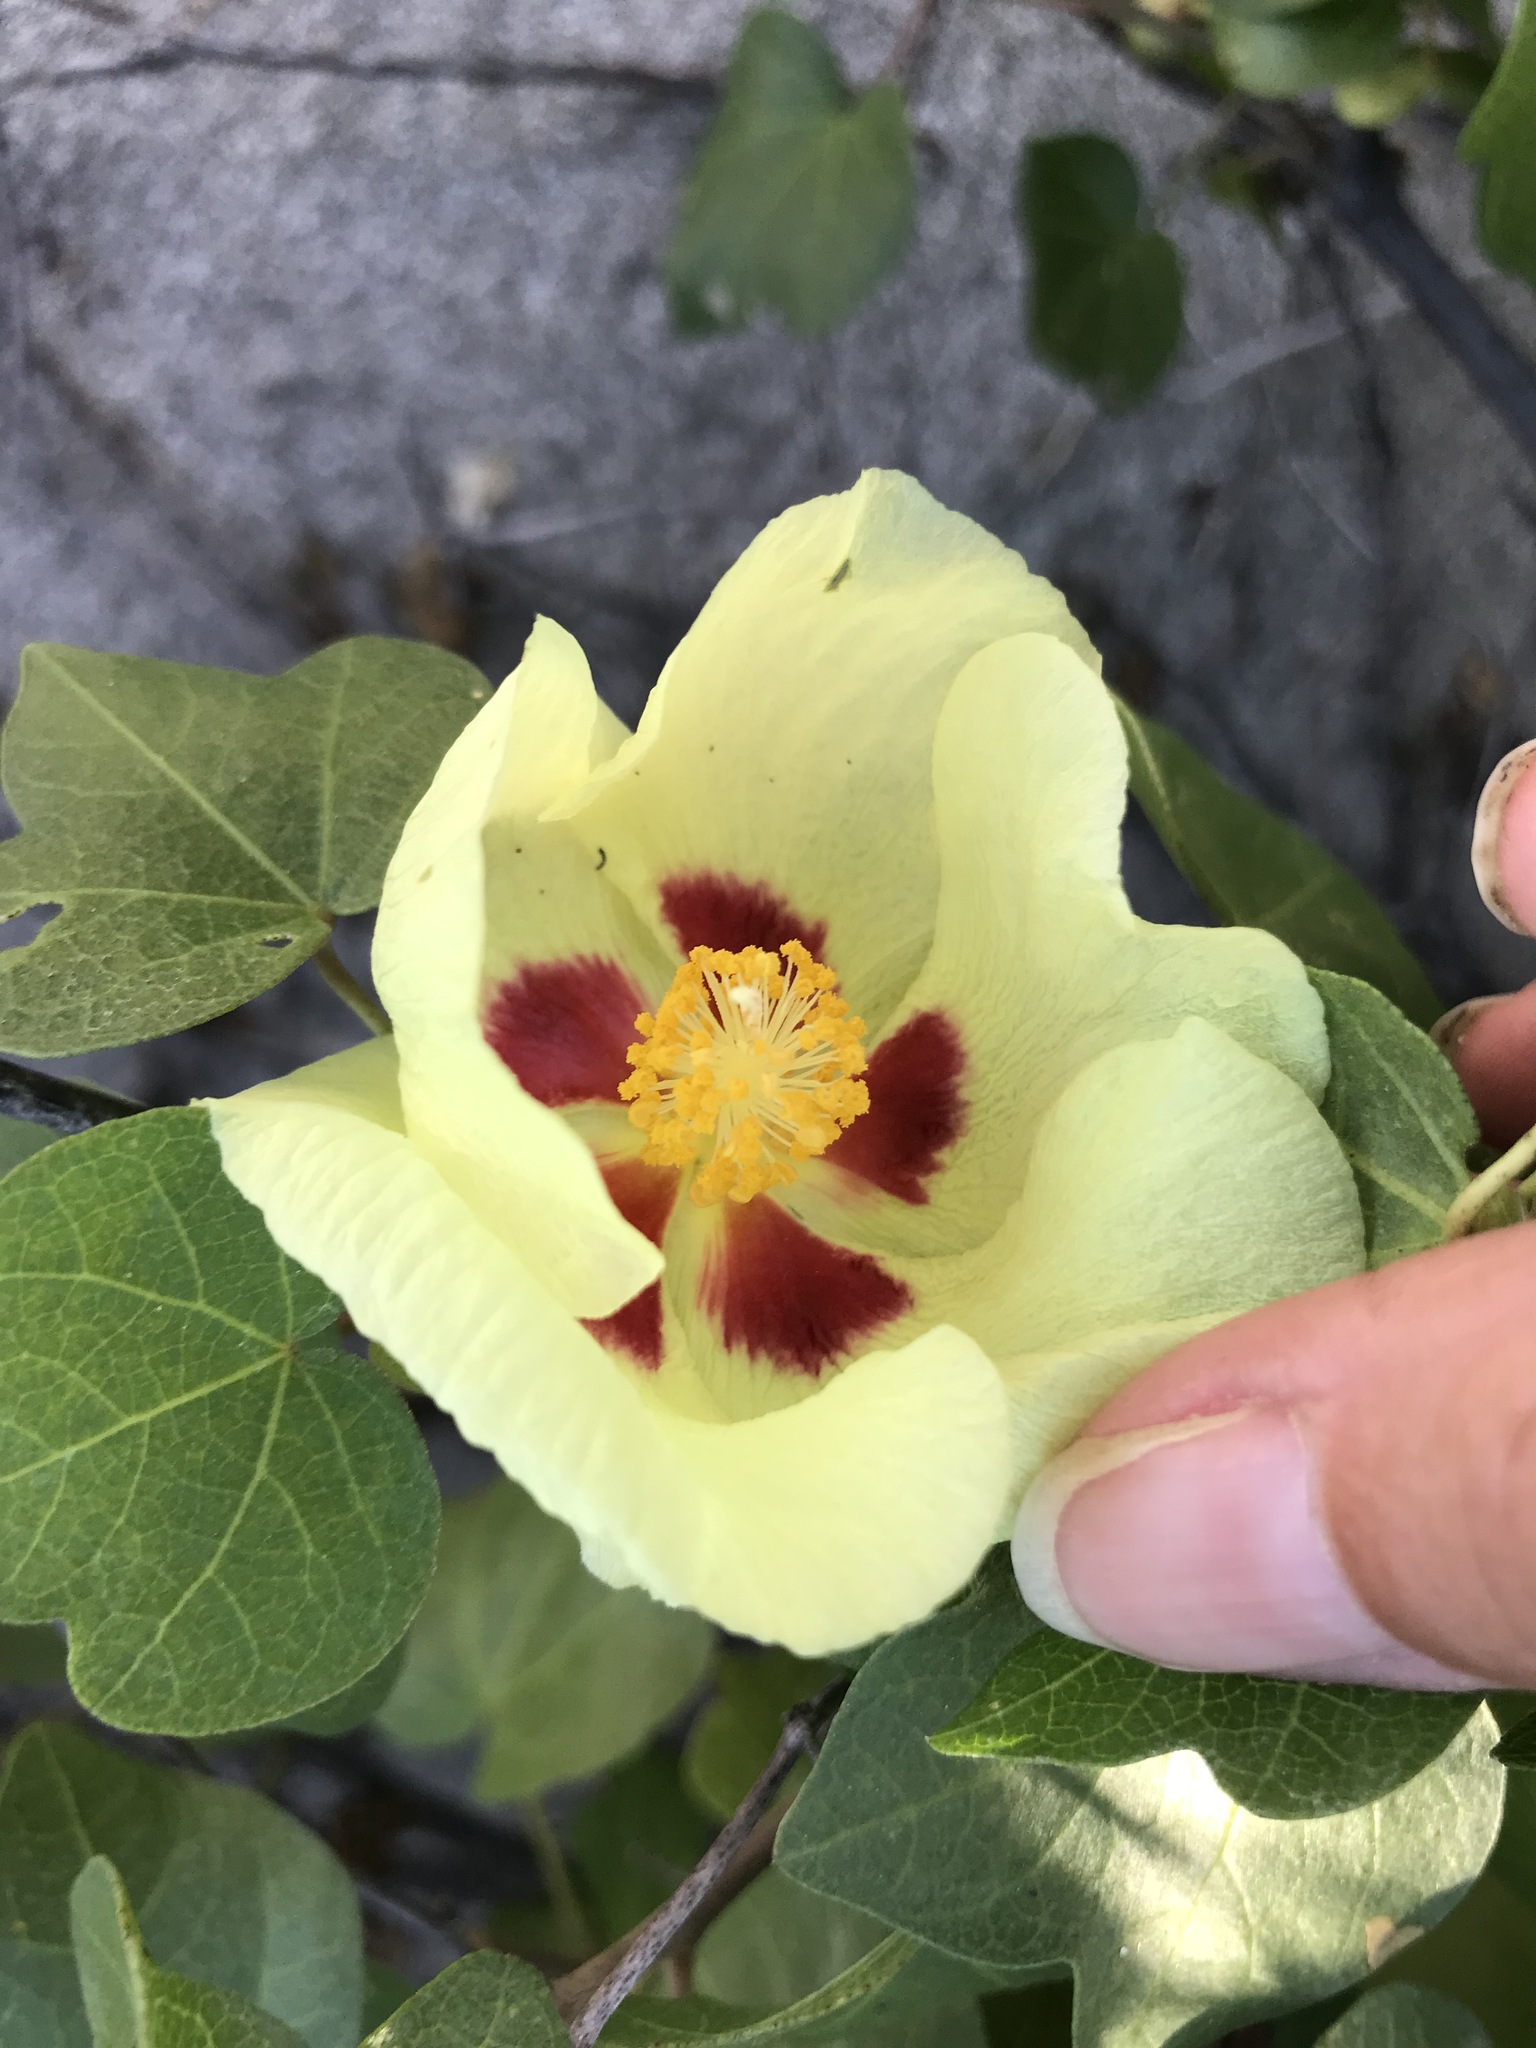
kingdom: Plantae
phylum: Tracheophyta
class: Magnoliopsida
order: Malvales
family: Malvaceae
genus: Gossypium
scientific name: Gossypium harknessii
